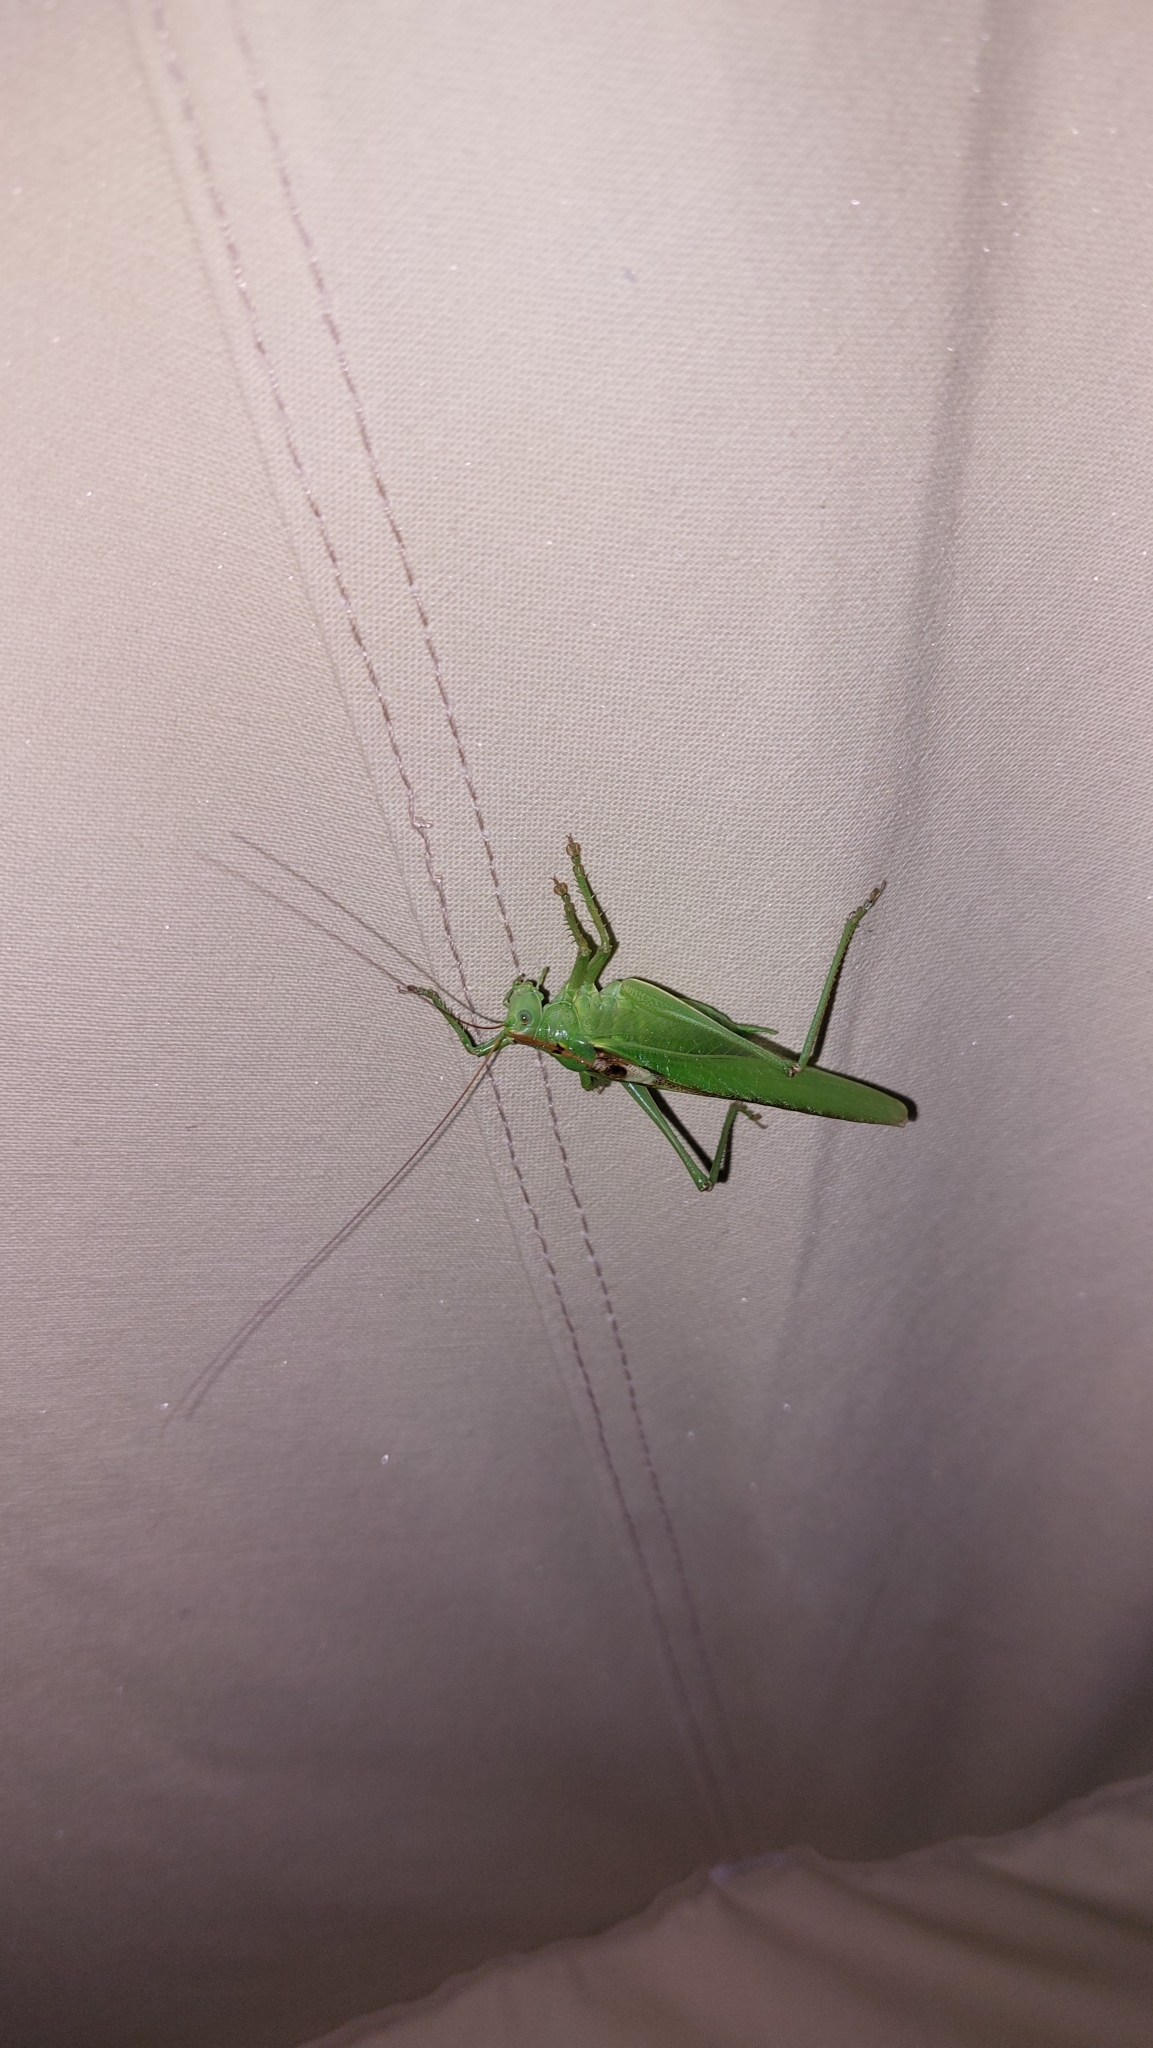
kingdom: Animalia
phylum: Arthropoda
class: Insecta
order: Orthoptera
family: Tettigoniidae
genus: Tettigonia
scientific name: Tettigonia viridissima
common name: Great green bush-cricket
